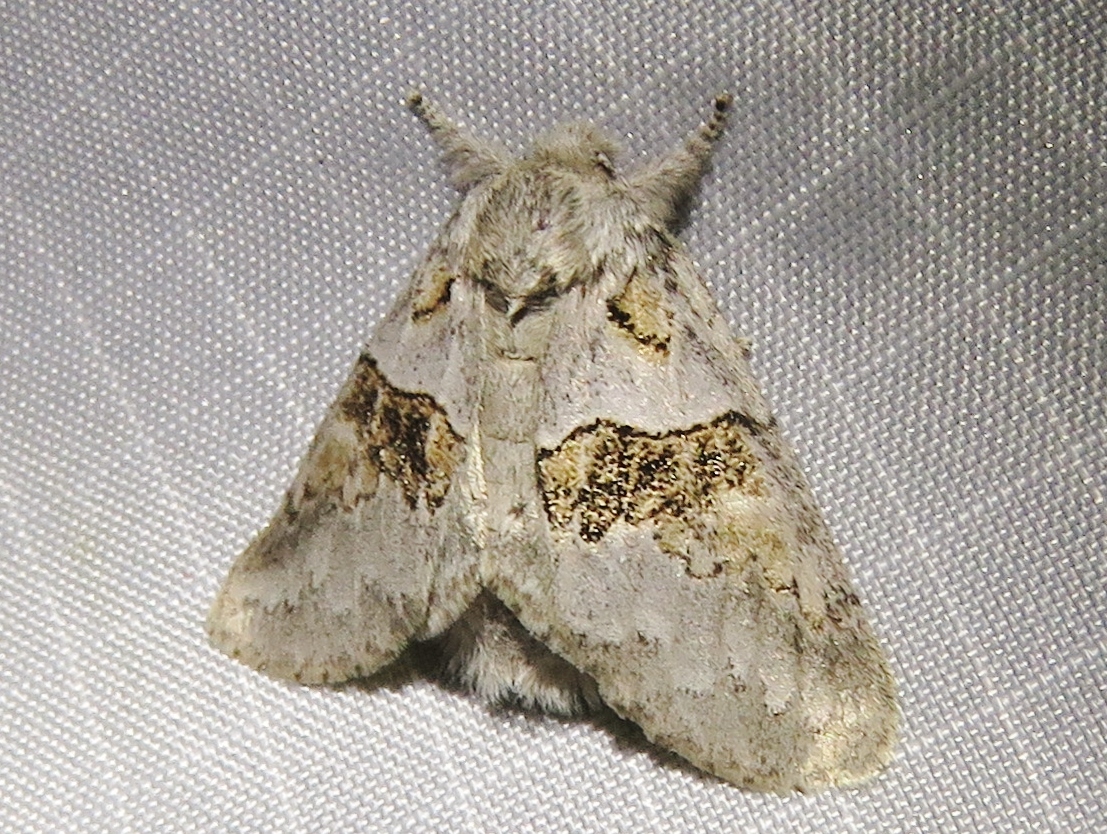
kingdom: Animalia
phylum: Arthropoda
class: Insecta
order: Lepidoptera
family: Notodontidae
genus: Gluphisia
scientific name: Gluphisia septentrionis
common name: Common gluphisia
